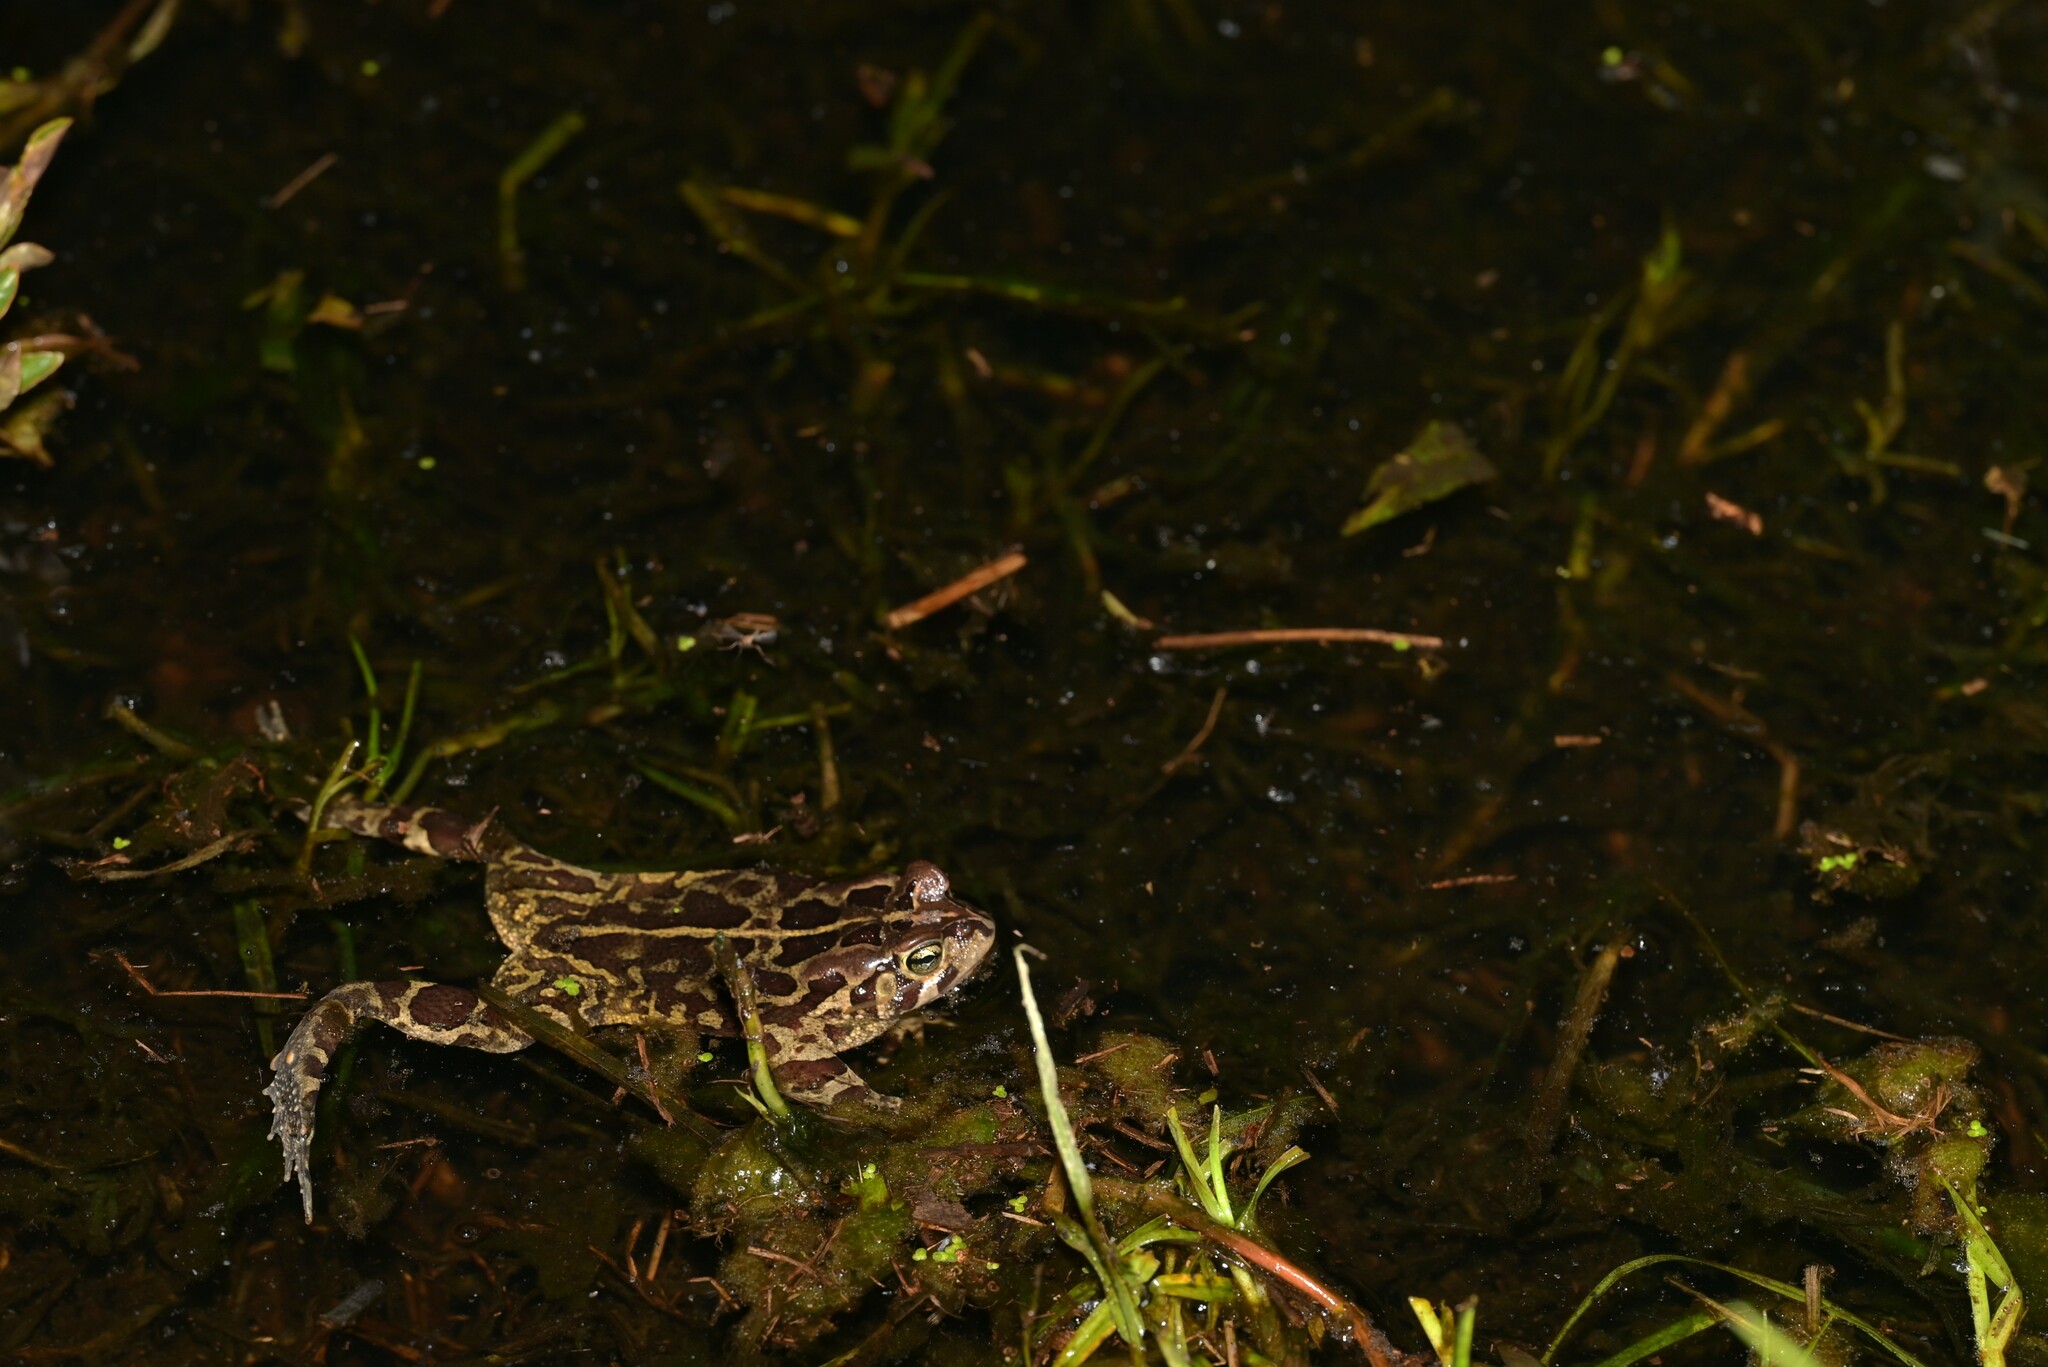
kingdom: Animalia
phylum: Chordata
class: Amphibia
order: Anura
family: Bufonidae
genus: Sclerophrys
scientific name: Sclerophrys pantherina
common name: Panther toad
